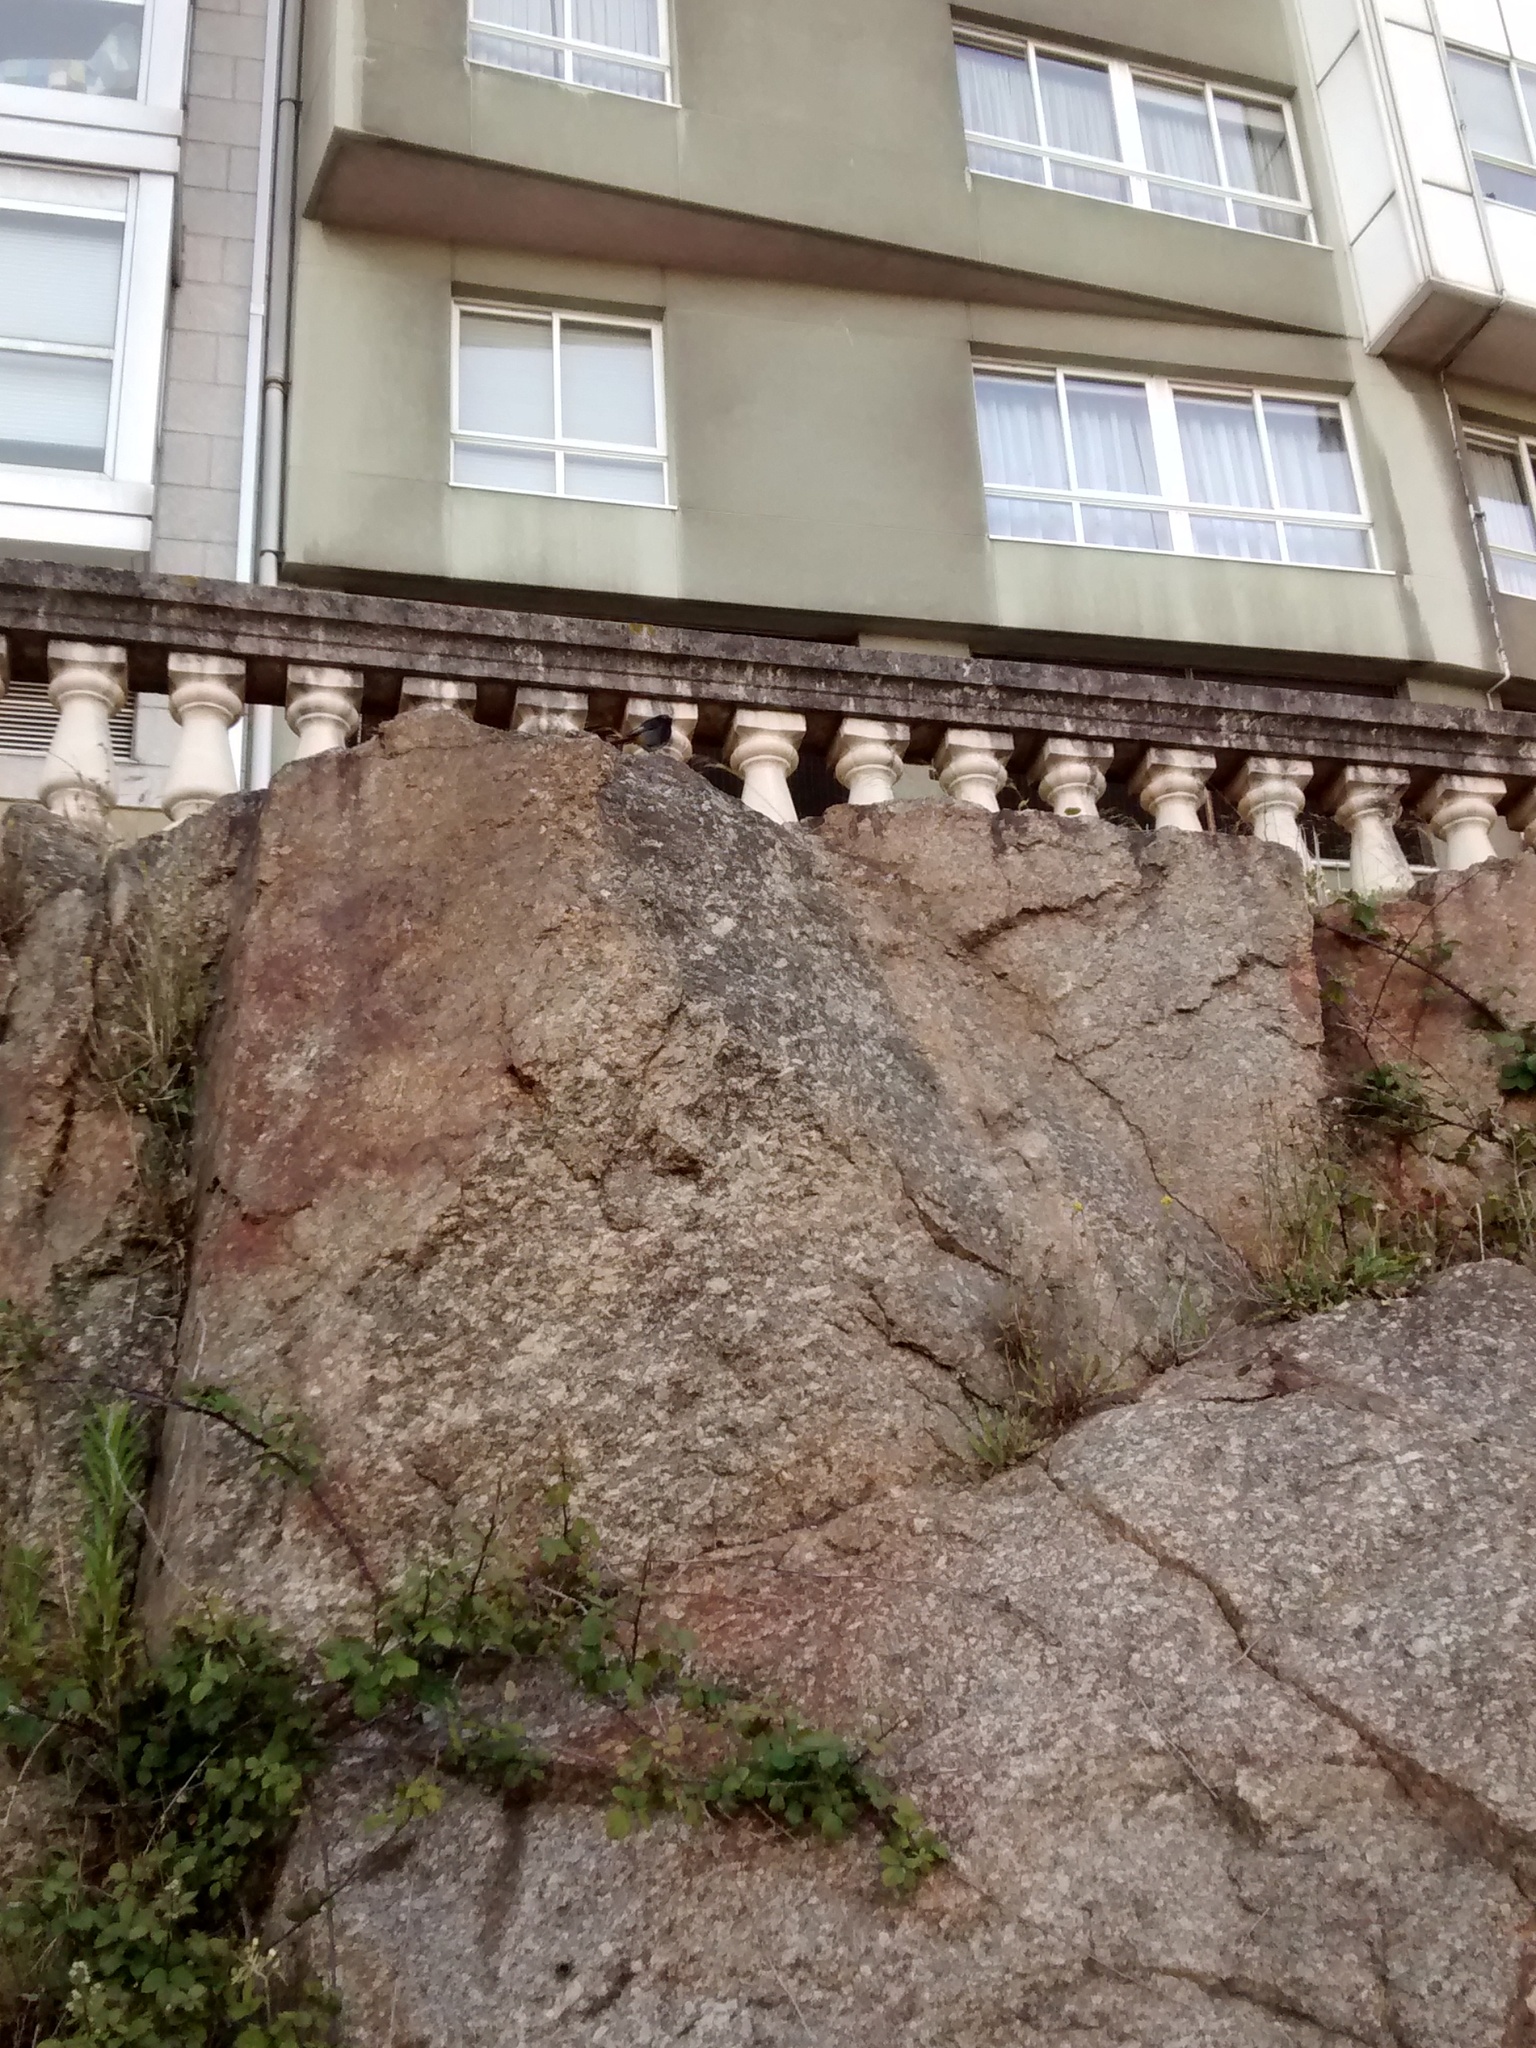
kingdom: Animalia
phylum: Chordata
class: Aves
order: Passeriformes
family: Muscicapidae
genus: Phoenicurus
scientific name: Phoenicurus ochruros
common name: Black redstart
